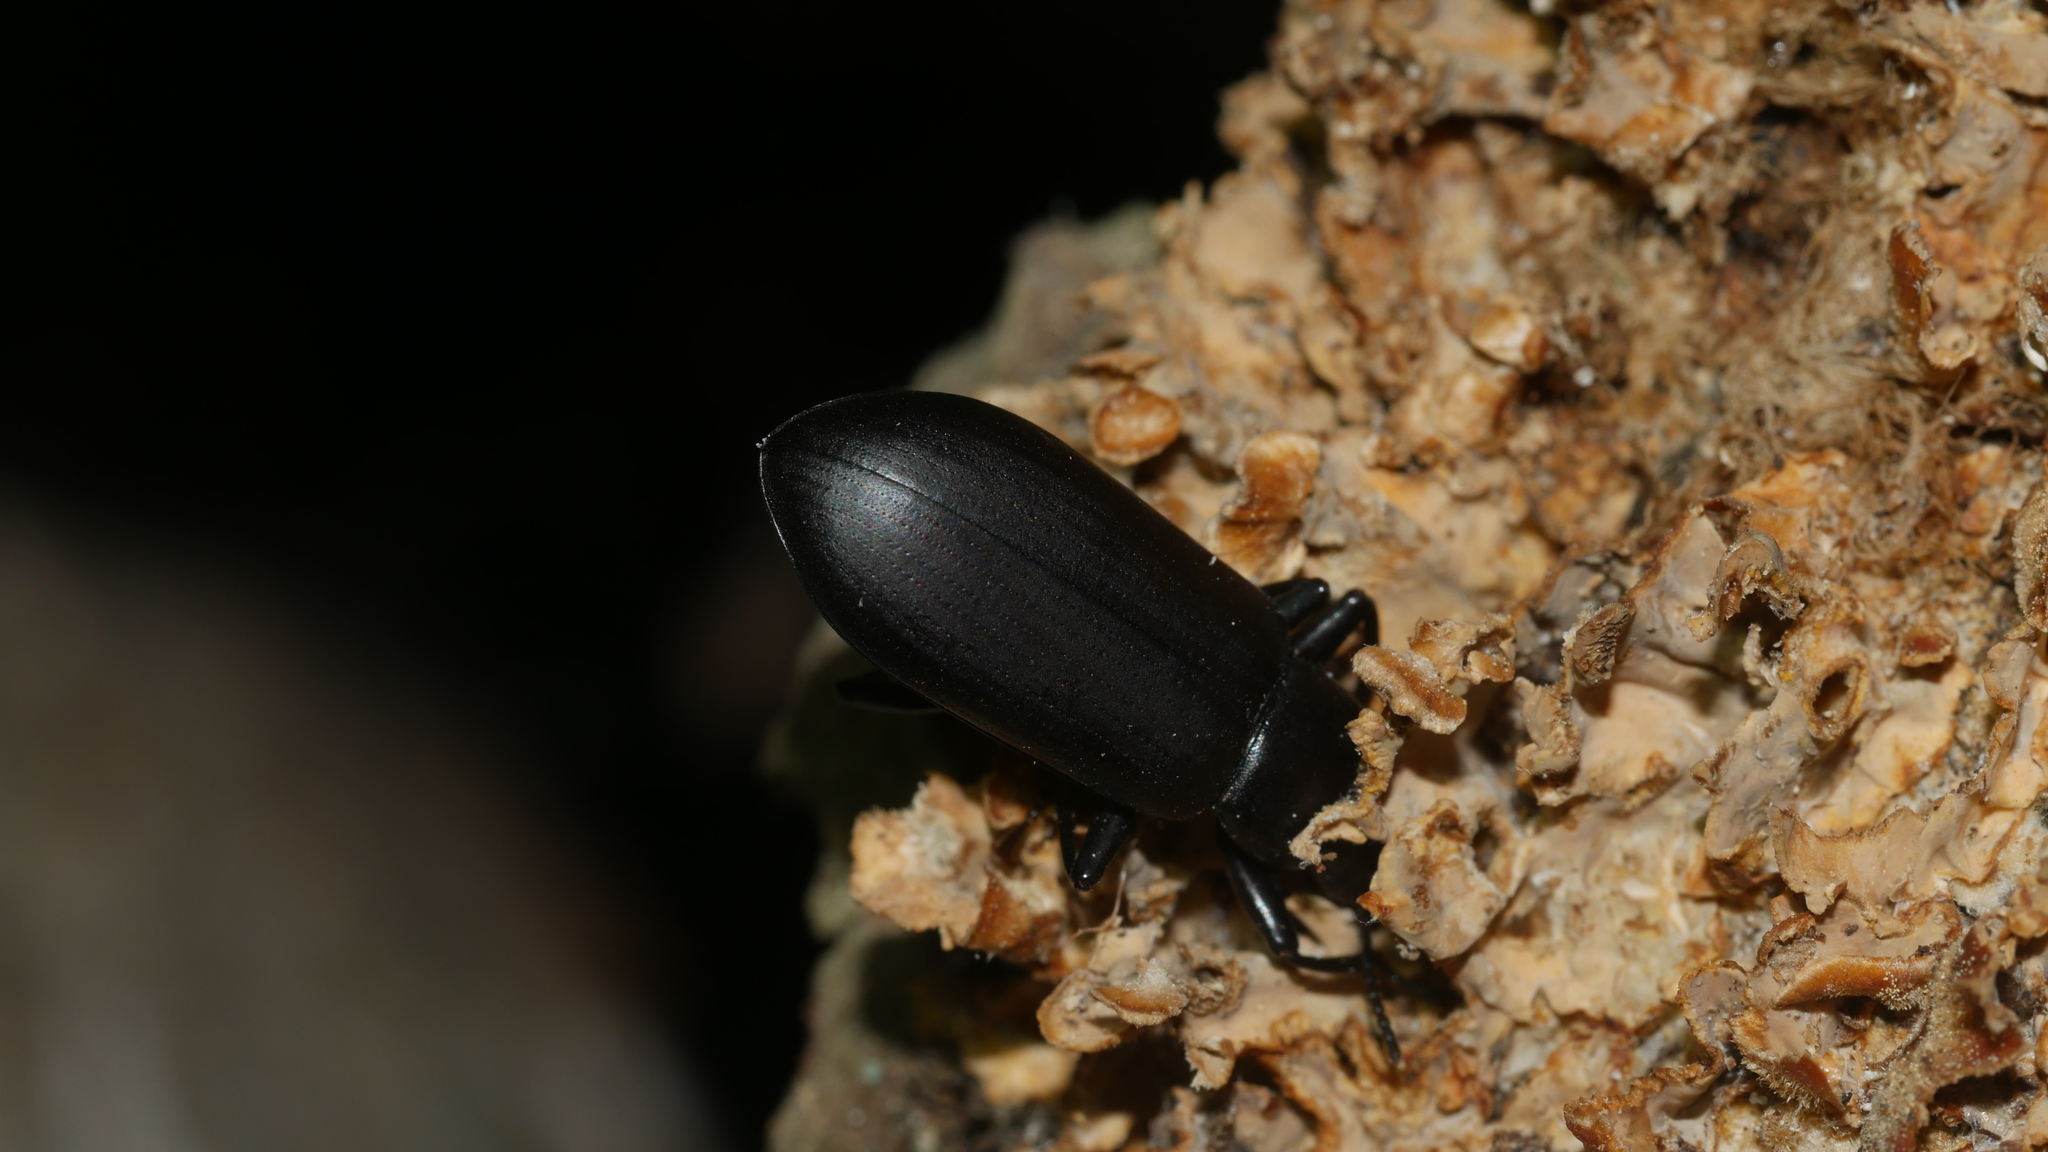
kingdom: Animalia
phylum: Arthropoda
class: Insecta
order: Coleoptera
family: Tenebrionidae
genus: Alobates
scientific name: Alobates
